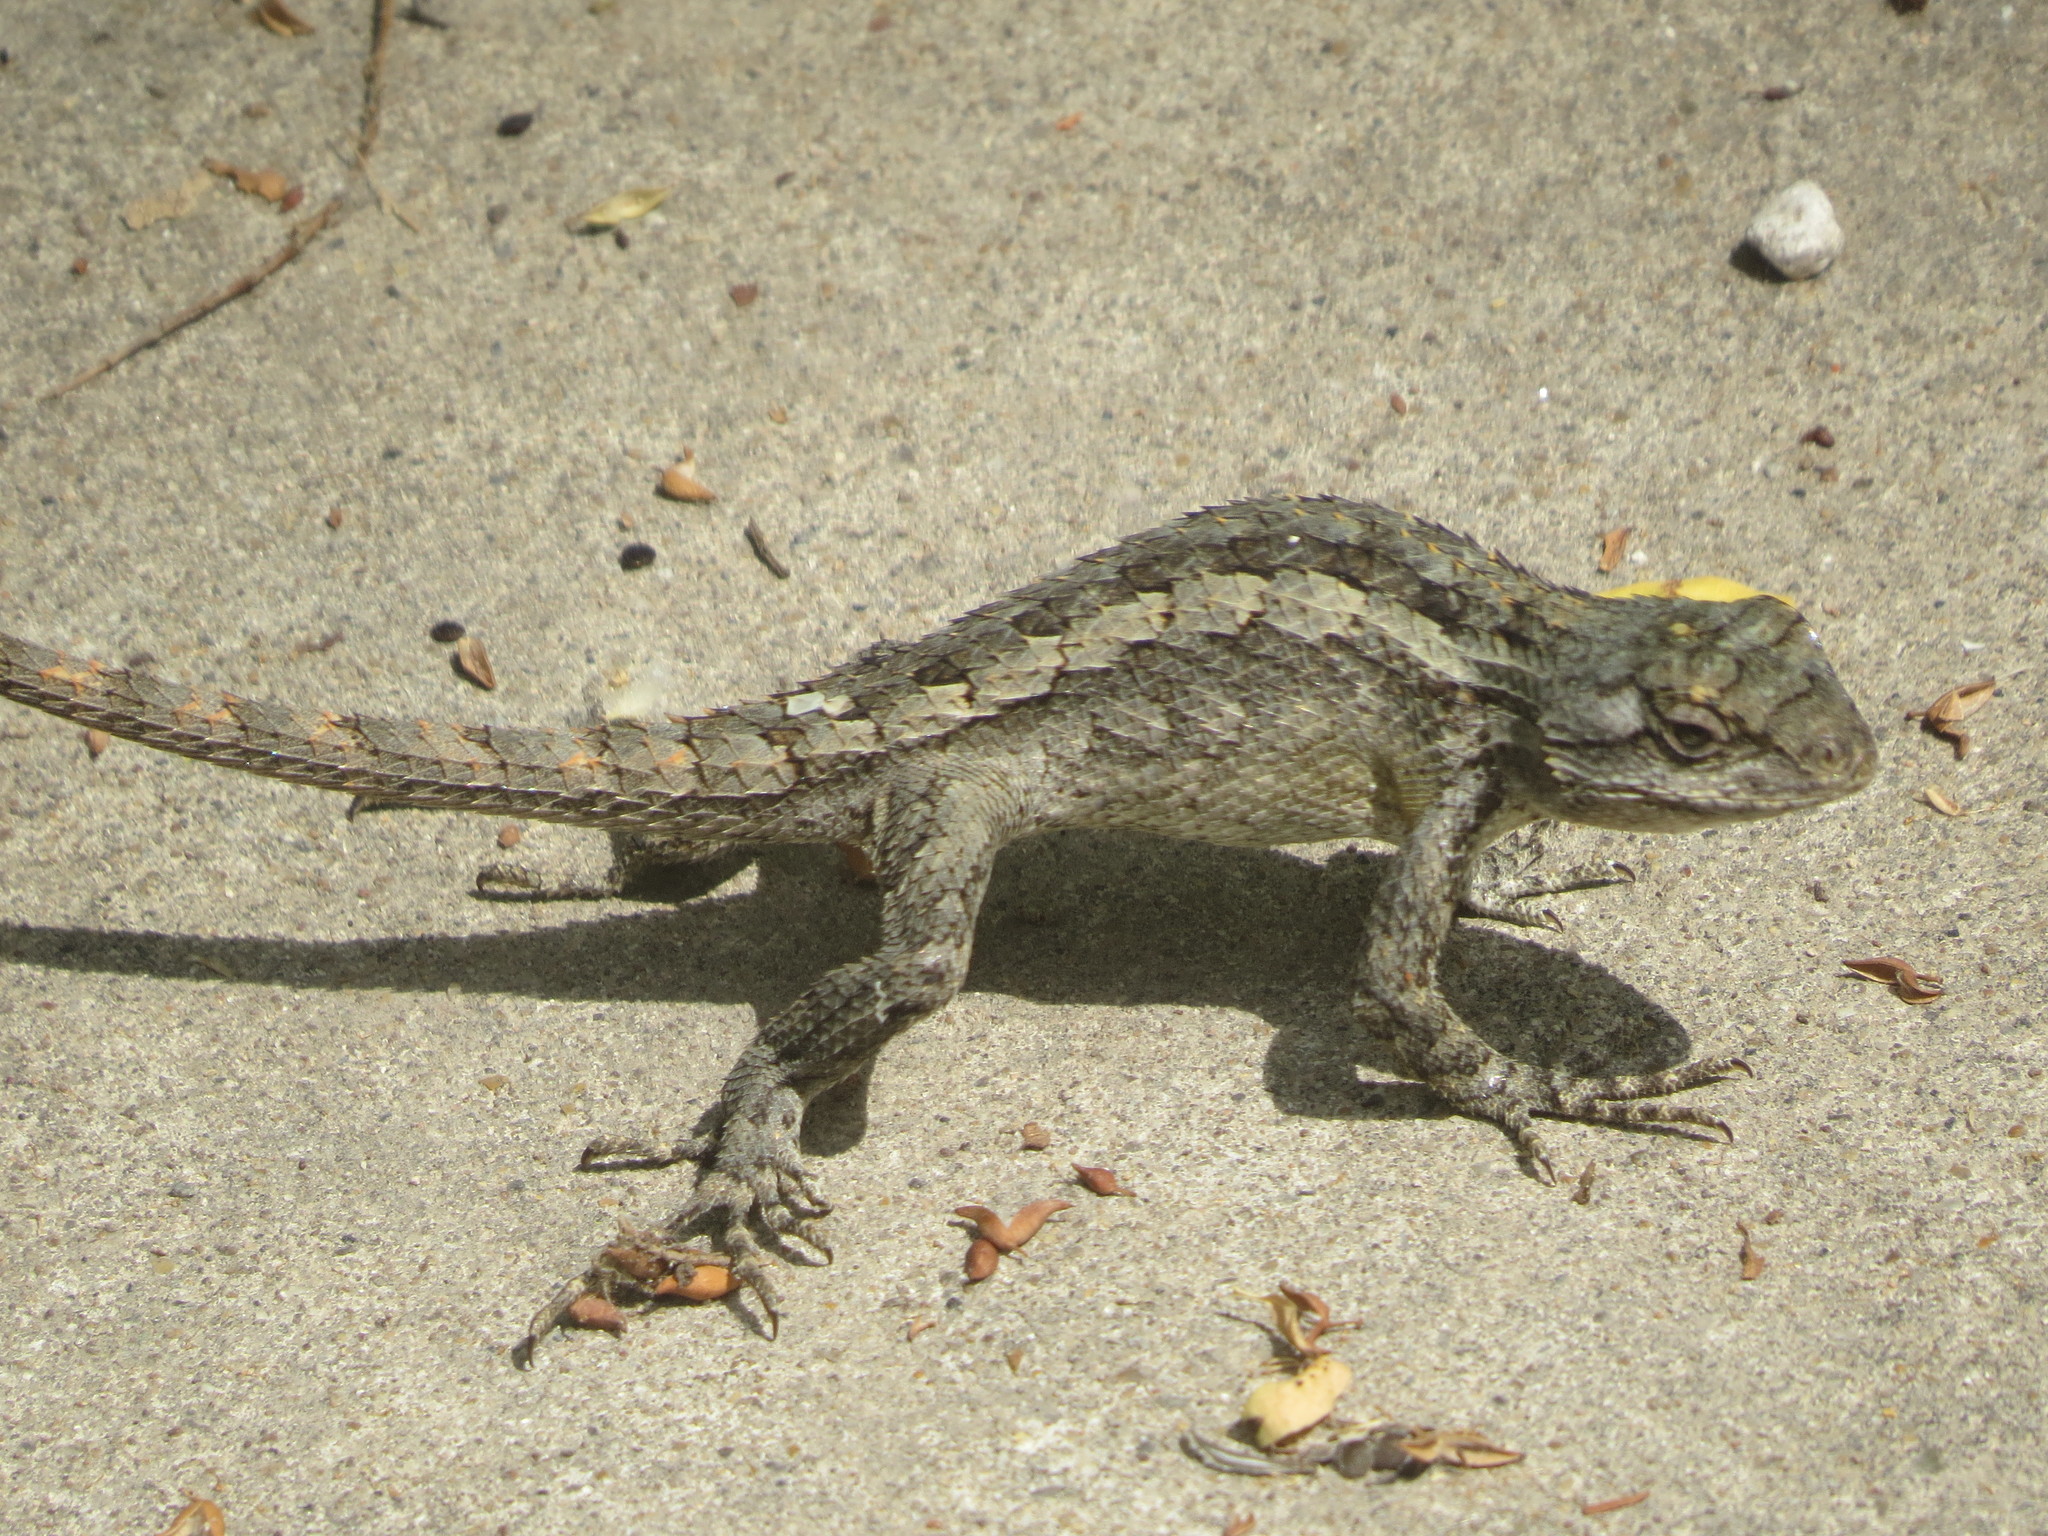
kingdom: Animalia
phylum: Chordata
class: Squamata
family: Phrynosomatidae
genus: Sceloporus
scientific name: Sceloporus olivaceus
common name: Texas spiny lizard
